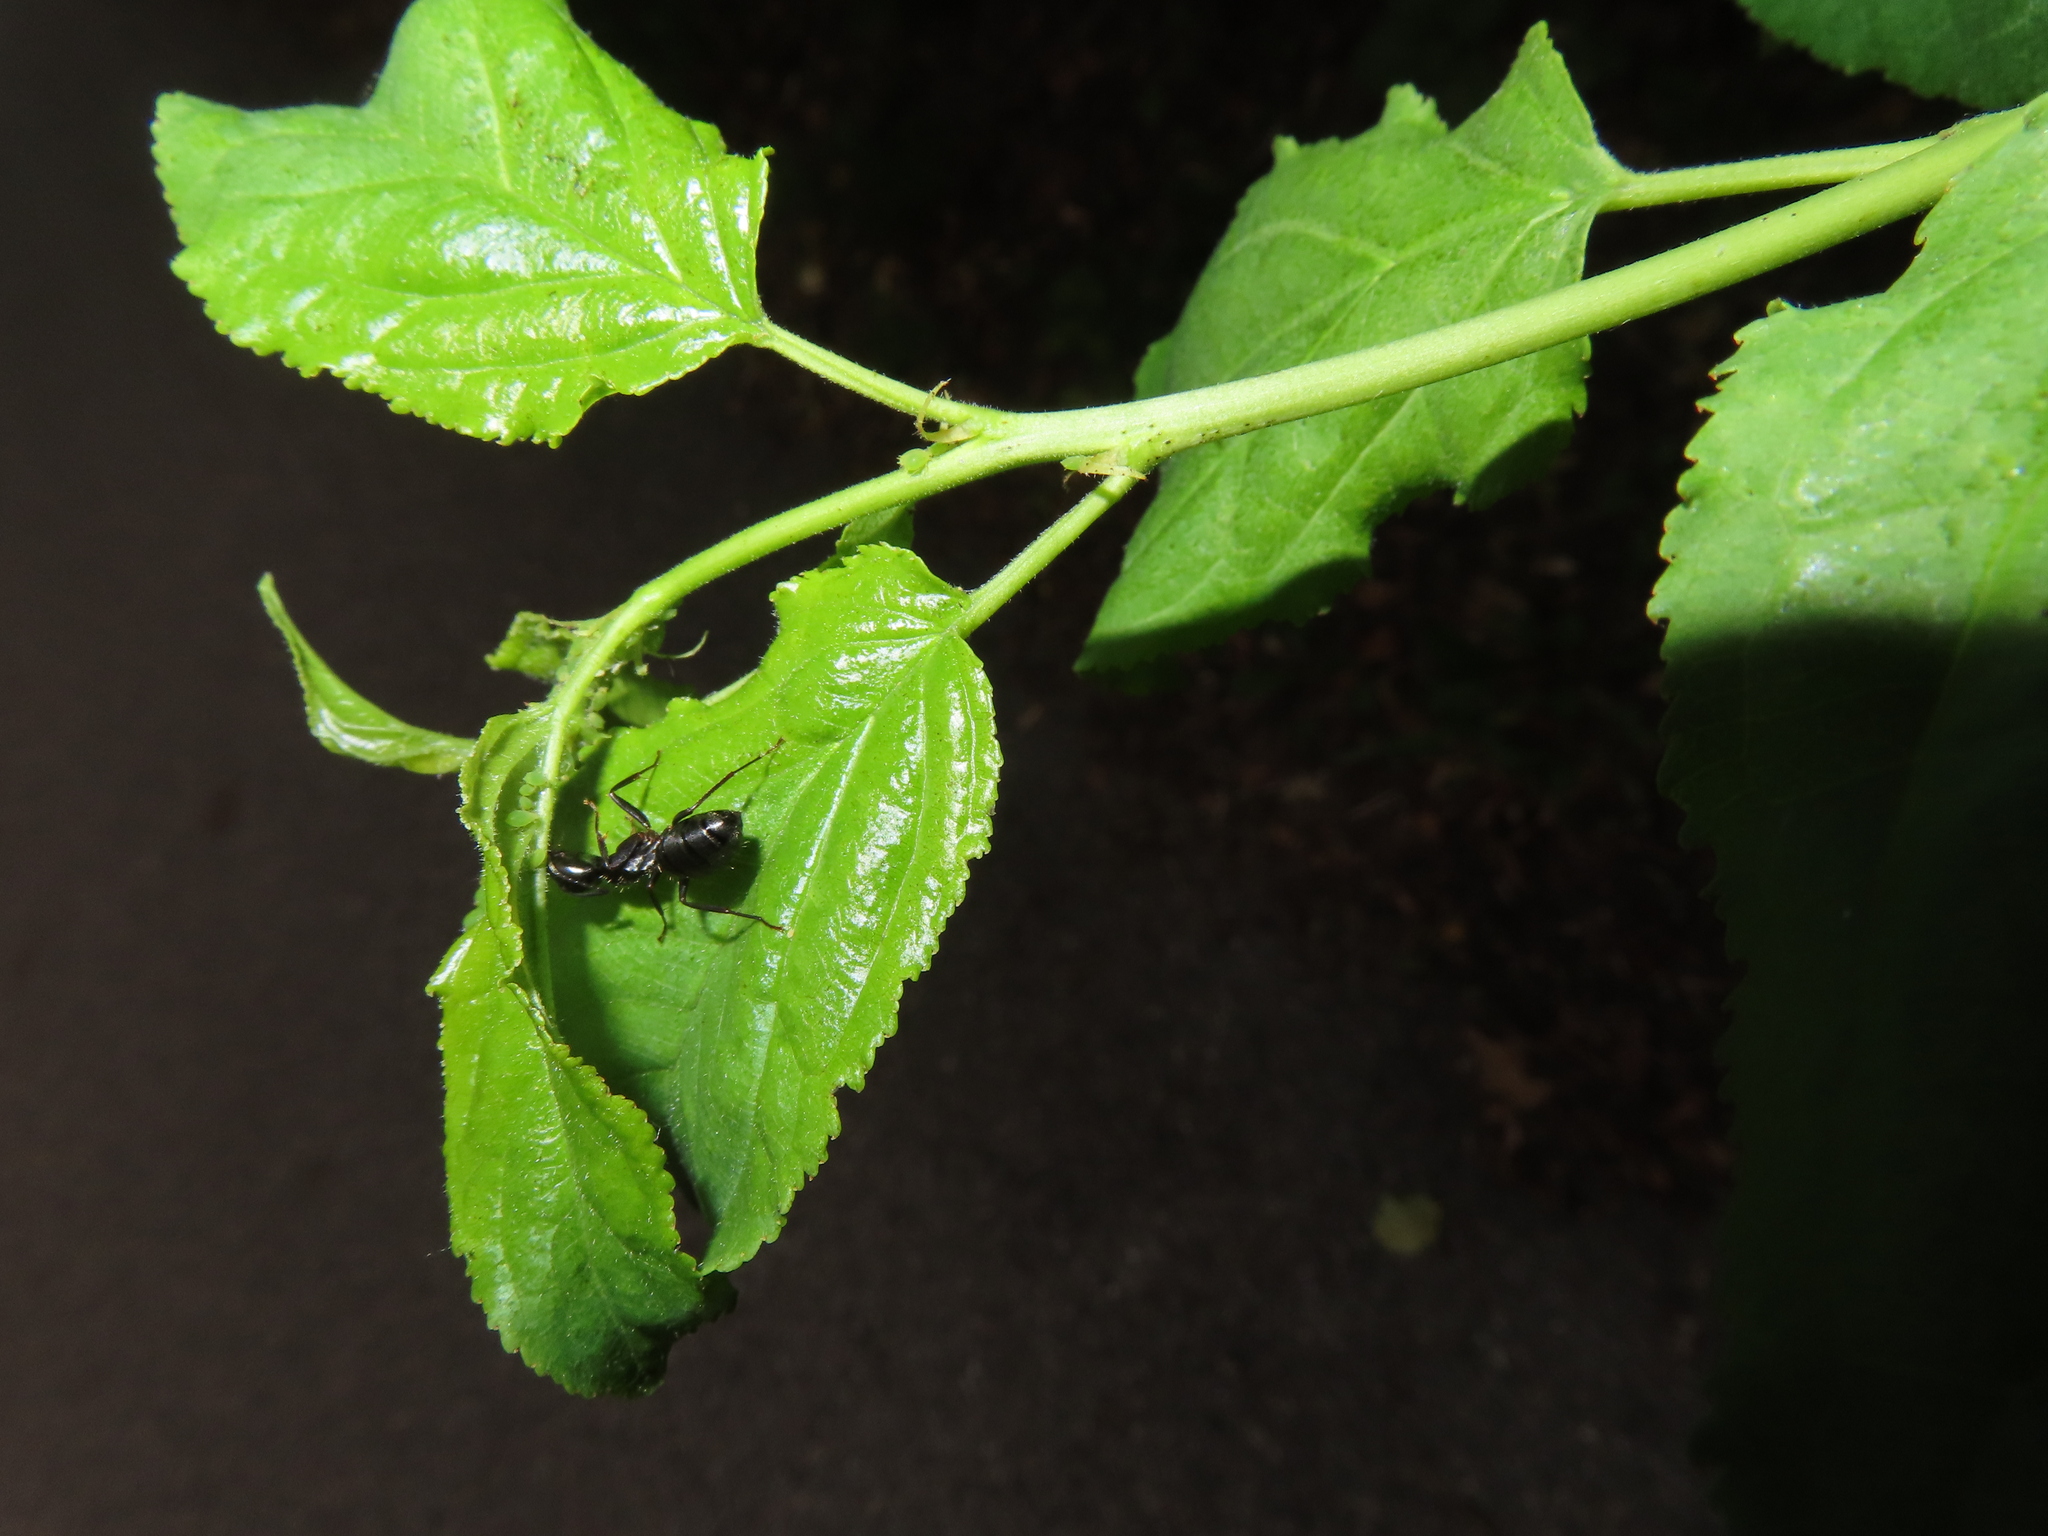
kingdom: Animalia
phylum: Arthropoda
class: Insecta
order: Hymenoptera
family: Formicidae
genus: Camponotus
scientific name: Camponotus pennsylvanicus
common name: Black carpenter ant
